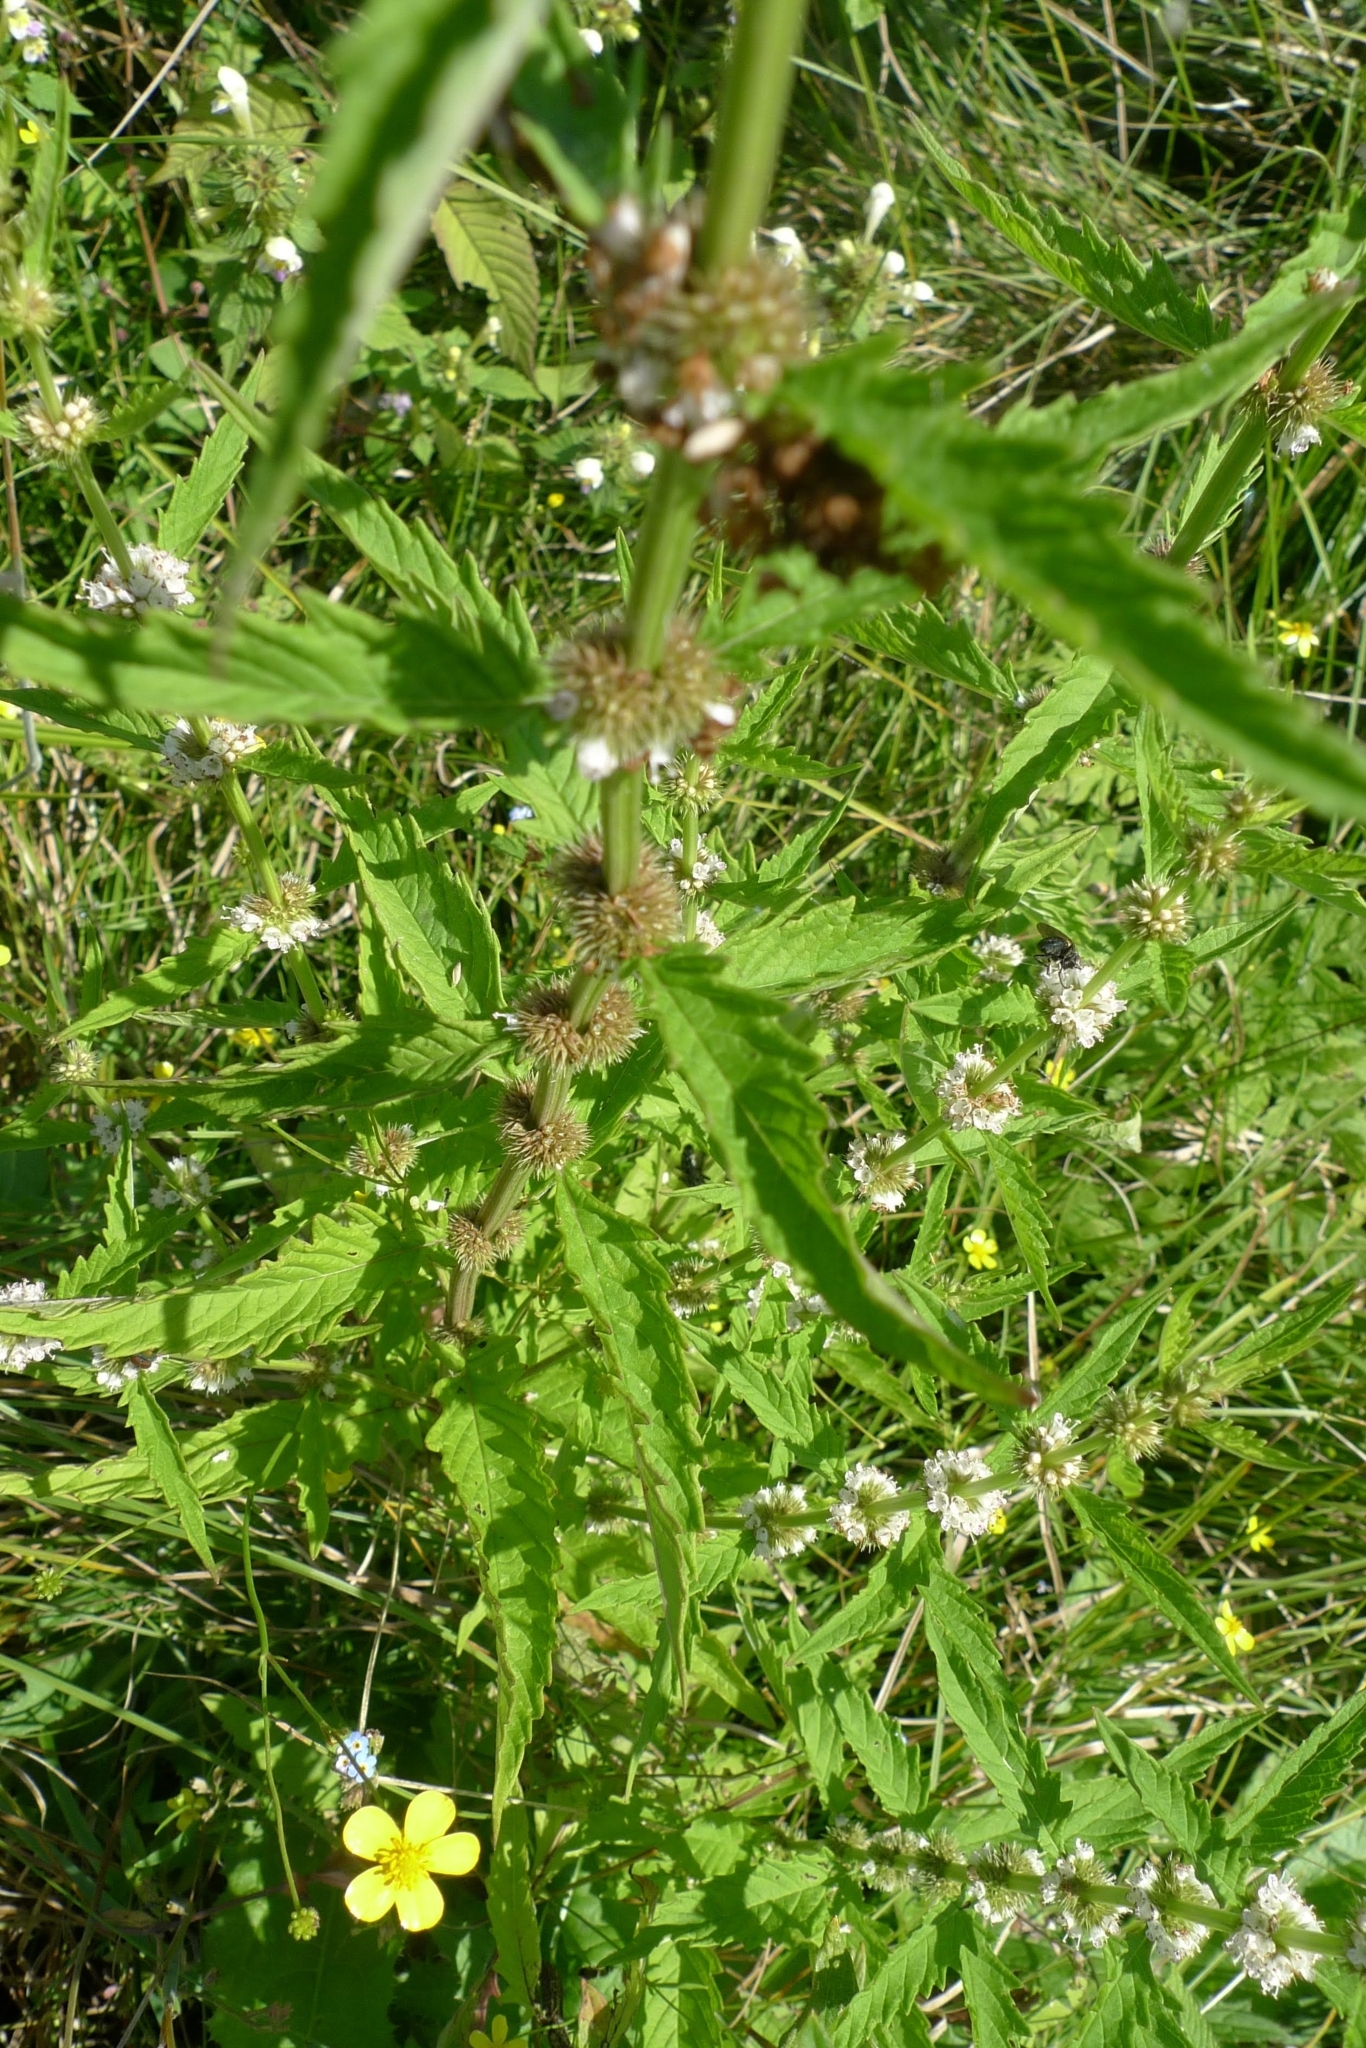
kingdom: Plantae
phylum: Tracheophyta
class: Magnoliopsida
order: Lamiales
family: Lamiaceae
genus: Lycopus
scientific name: Lycopus europaeus
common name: European bugleweed
